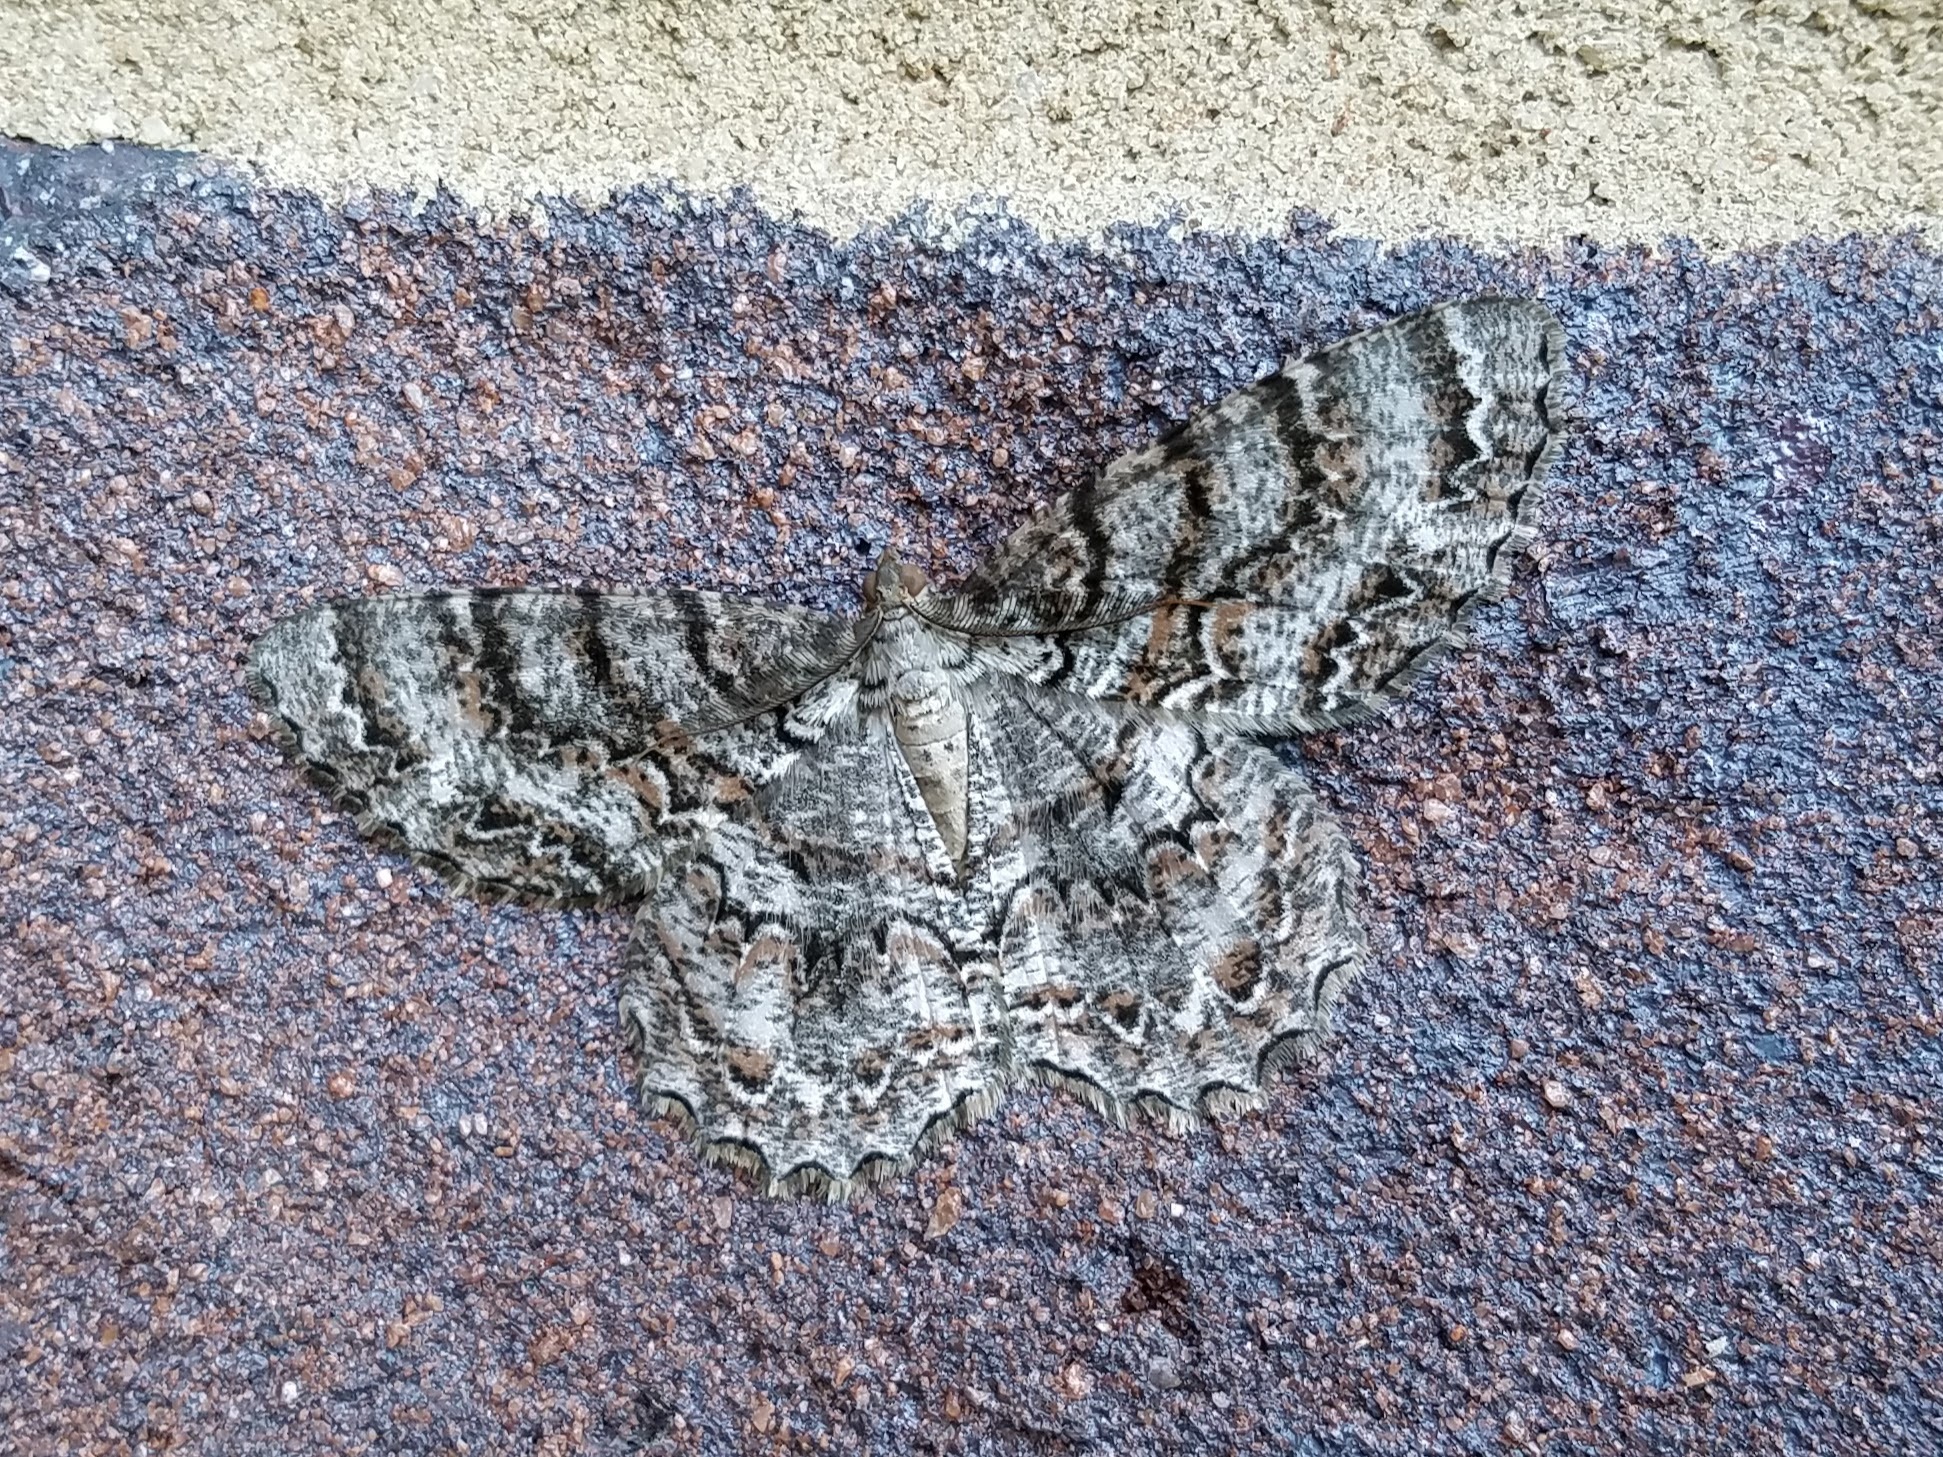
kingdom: Animalia
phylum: Arthropoda
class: Insecta
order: Lepidoptera
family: Geometridae
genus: Epimecis
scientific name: Epimecis hortaria
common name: Tulip-tree beauty
